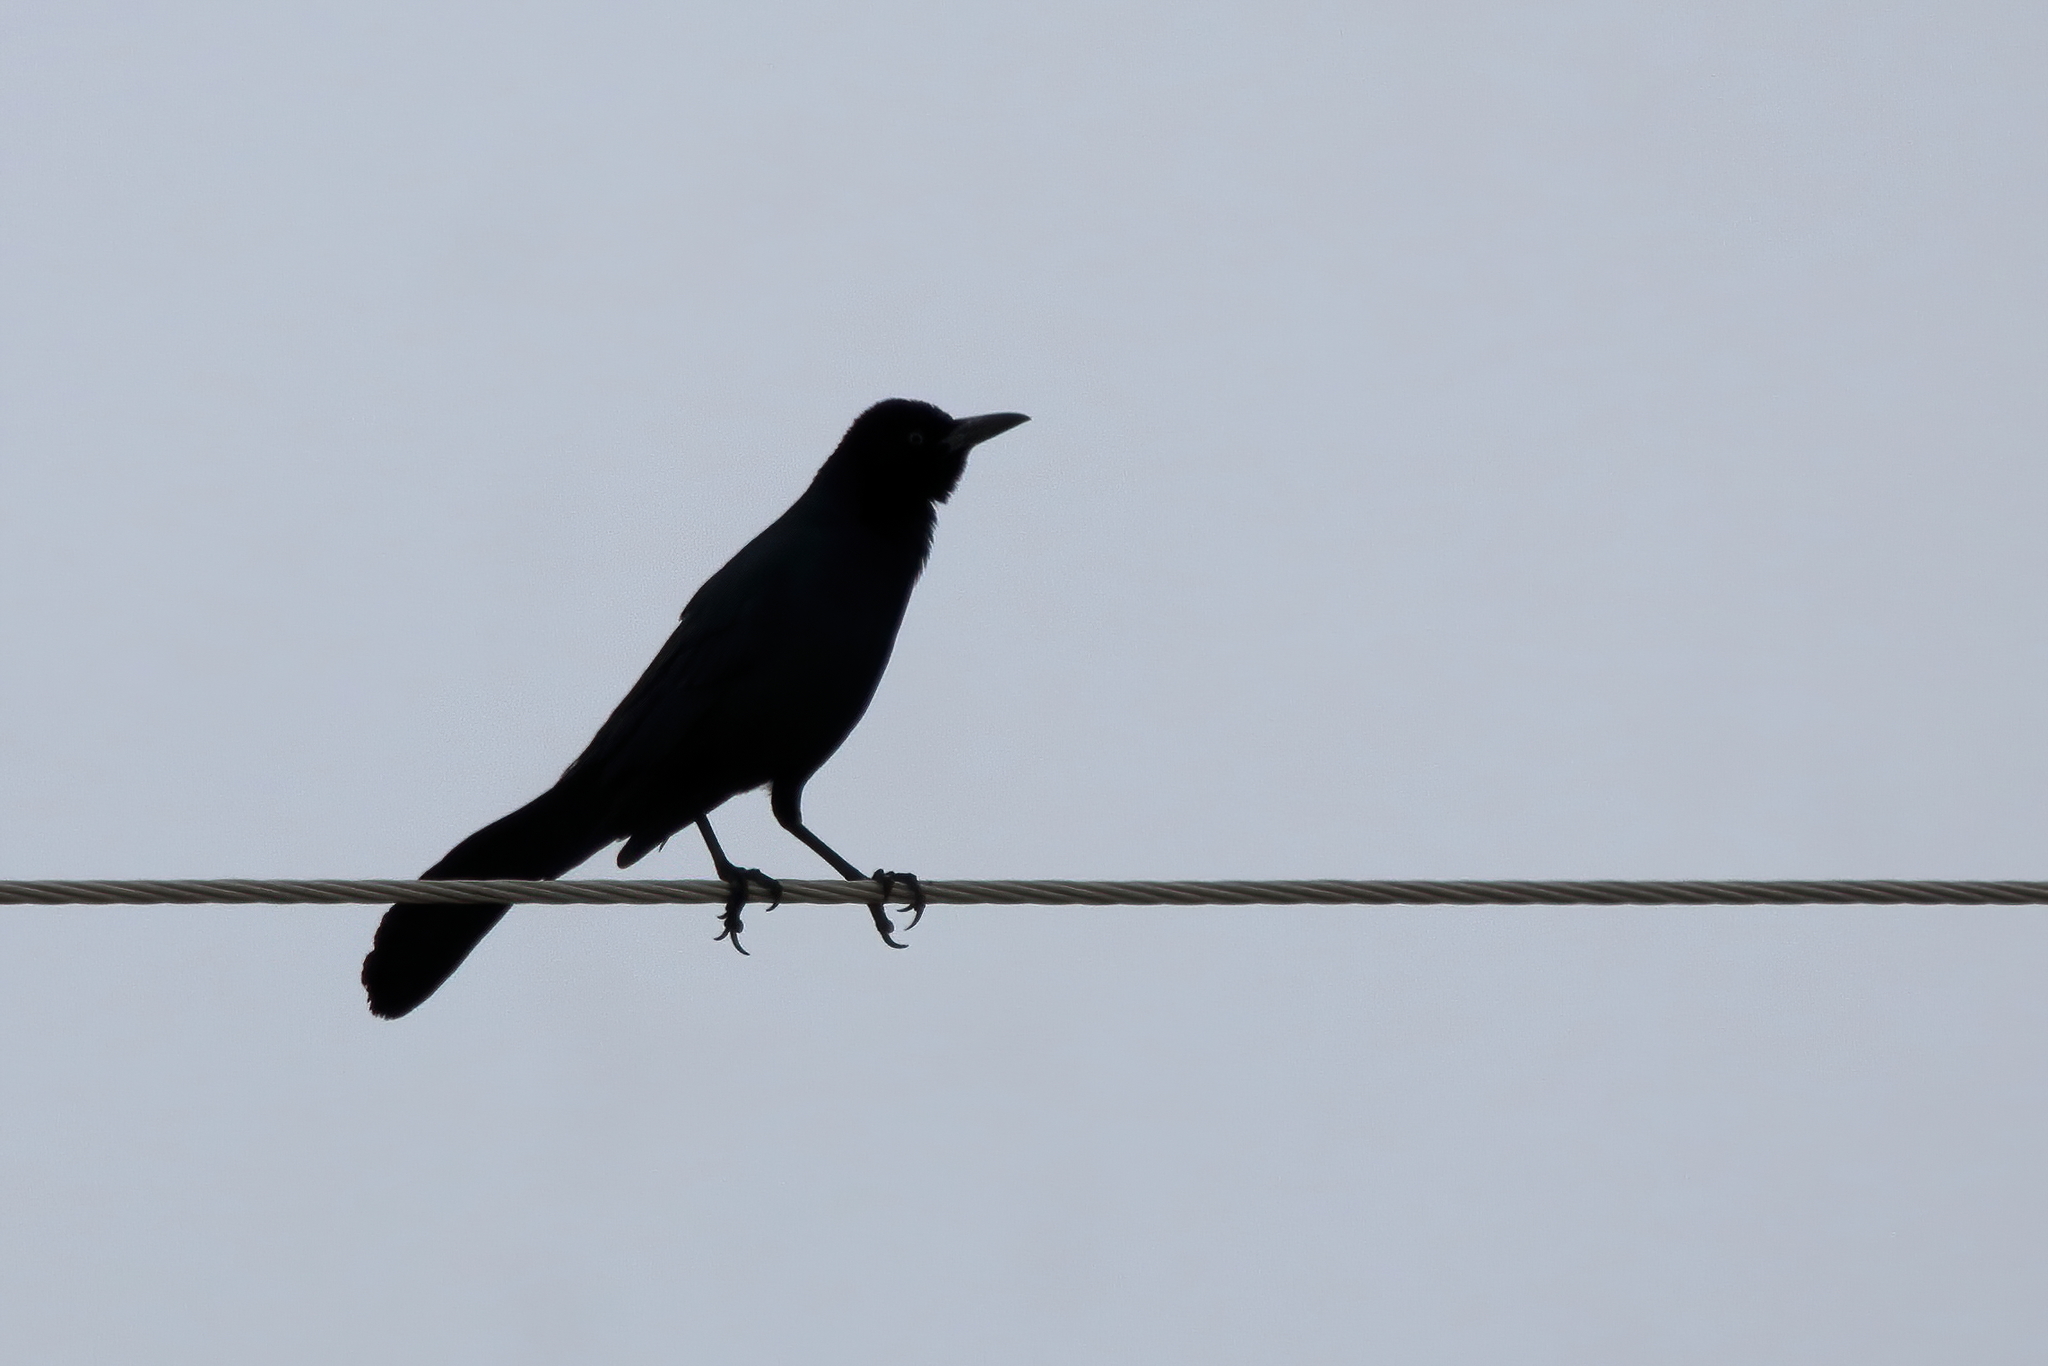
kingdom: Animalia
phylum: Chordata
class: Aves
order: Passeriformes
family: Icteridae
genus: Quiscalus
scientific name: Quiscalus major
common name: Boat-tailed grackle
